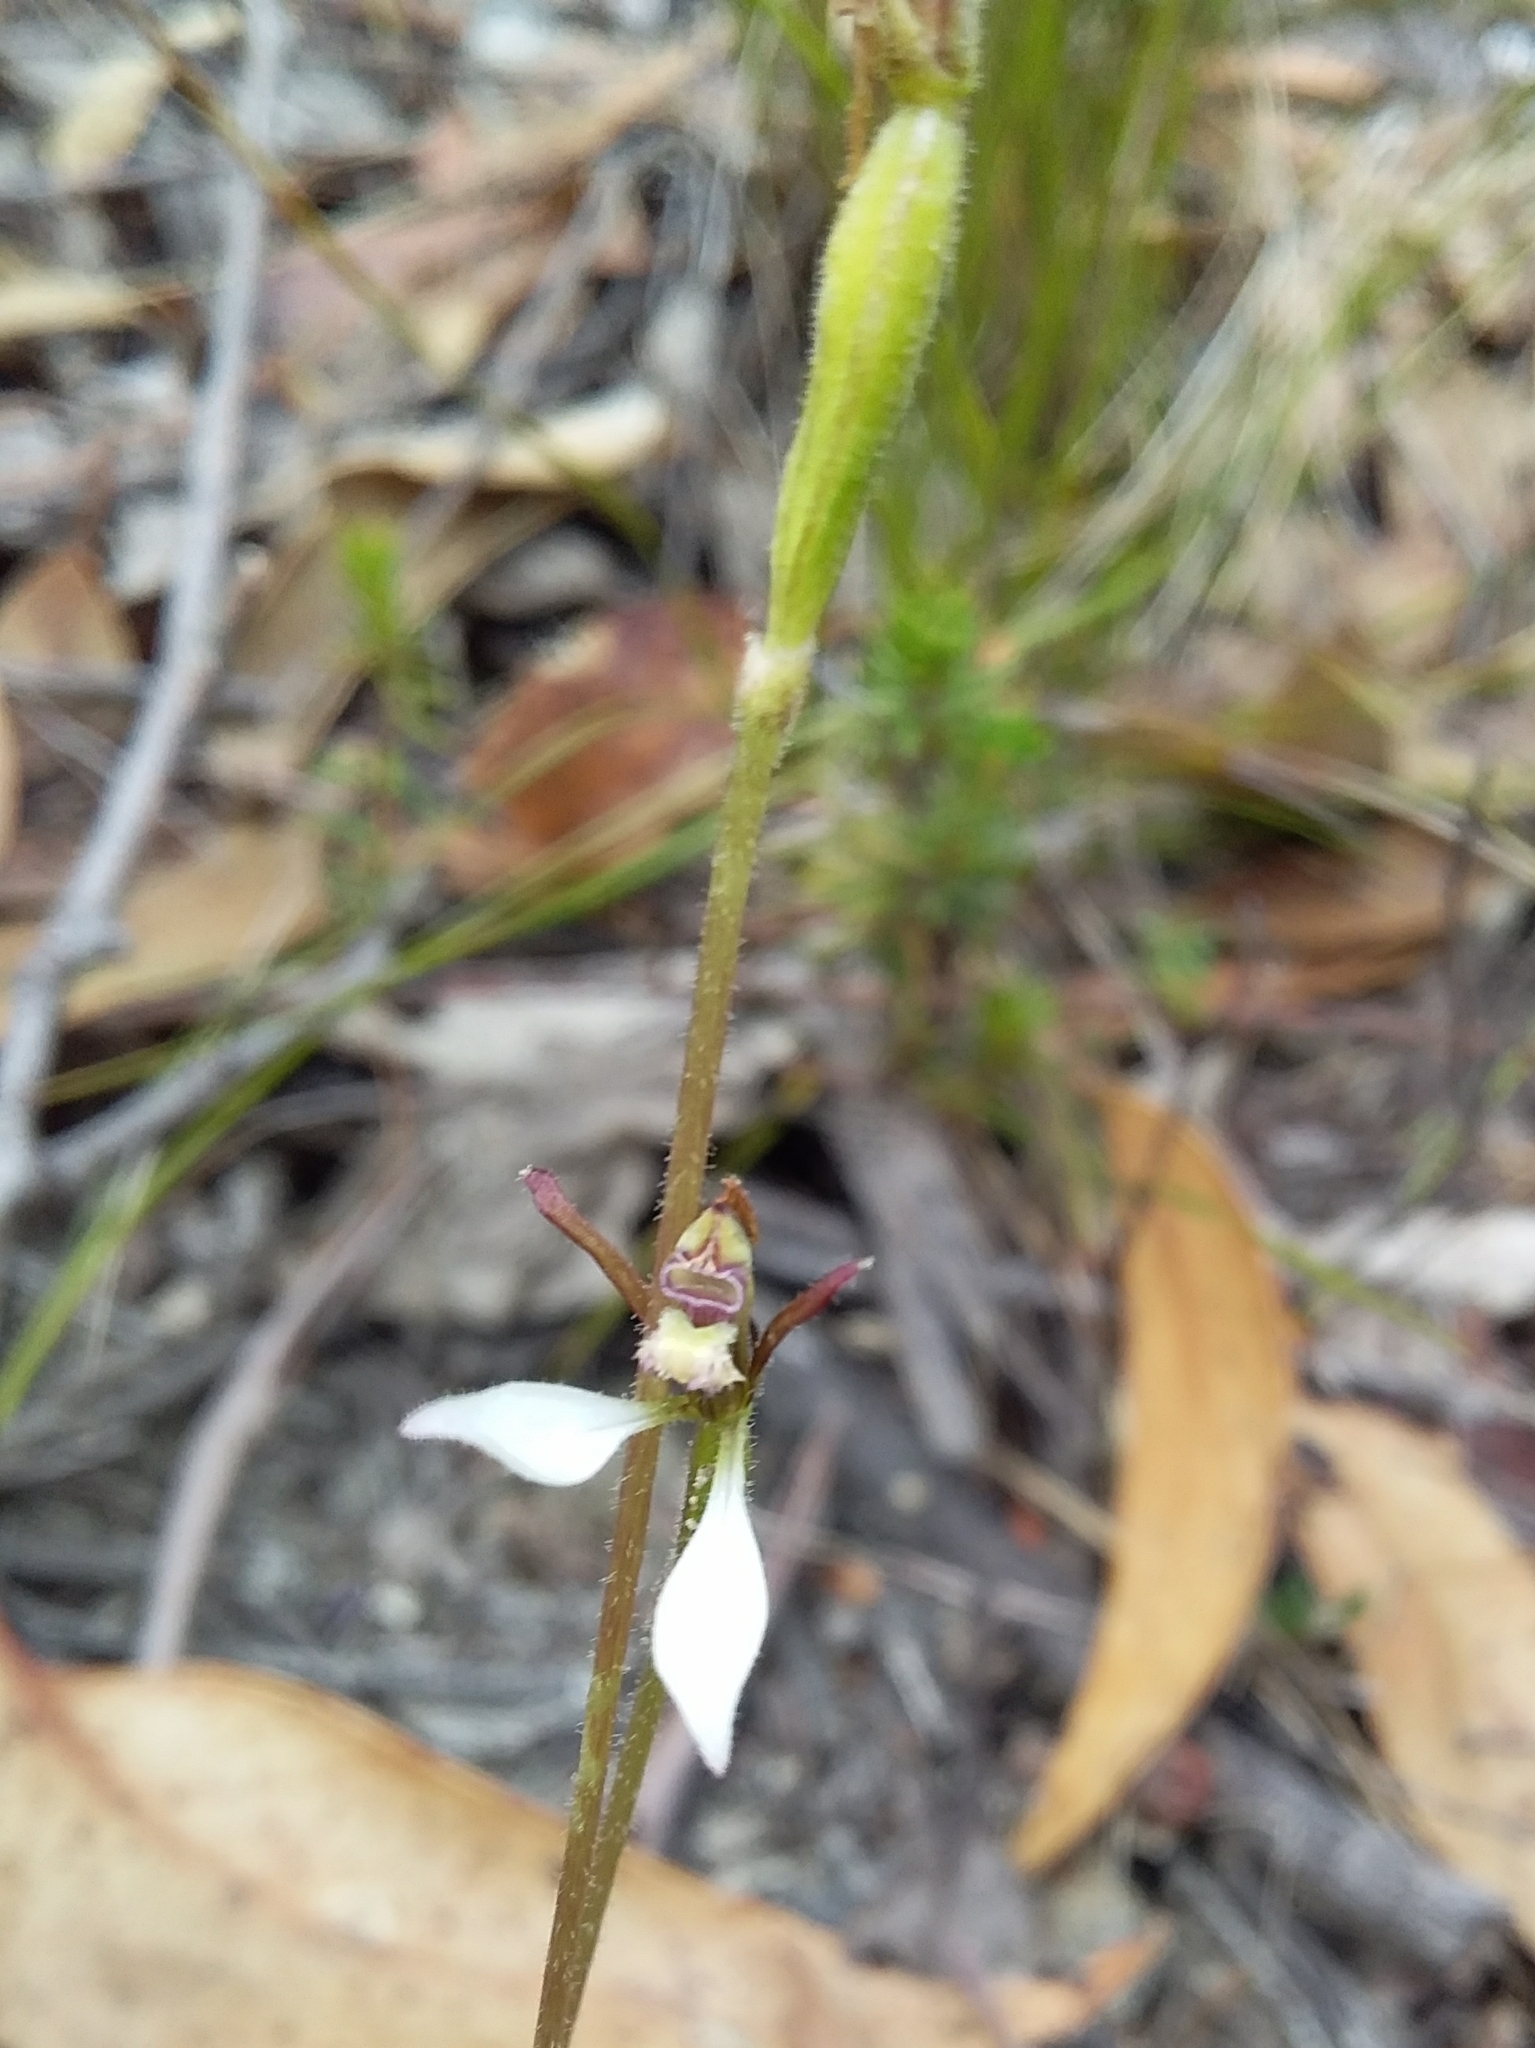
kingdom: Plantae
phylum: Tracheophyta
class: Liliopsida
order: Asparagales
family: Orchidaceae
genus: Eriochilus
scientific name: Eriochilus collinus
